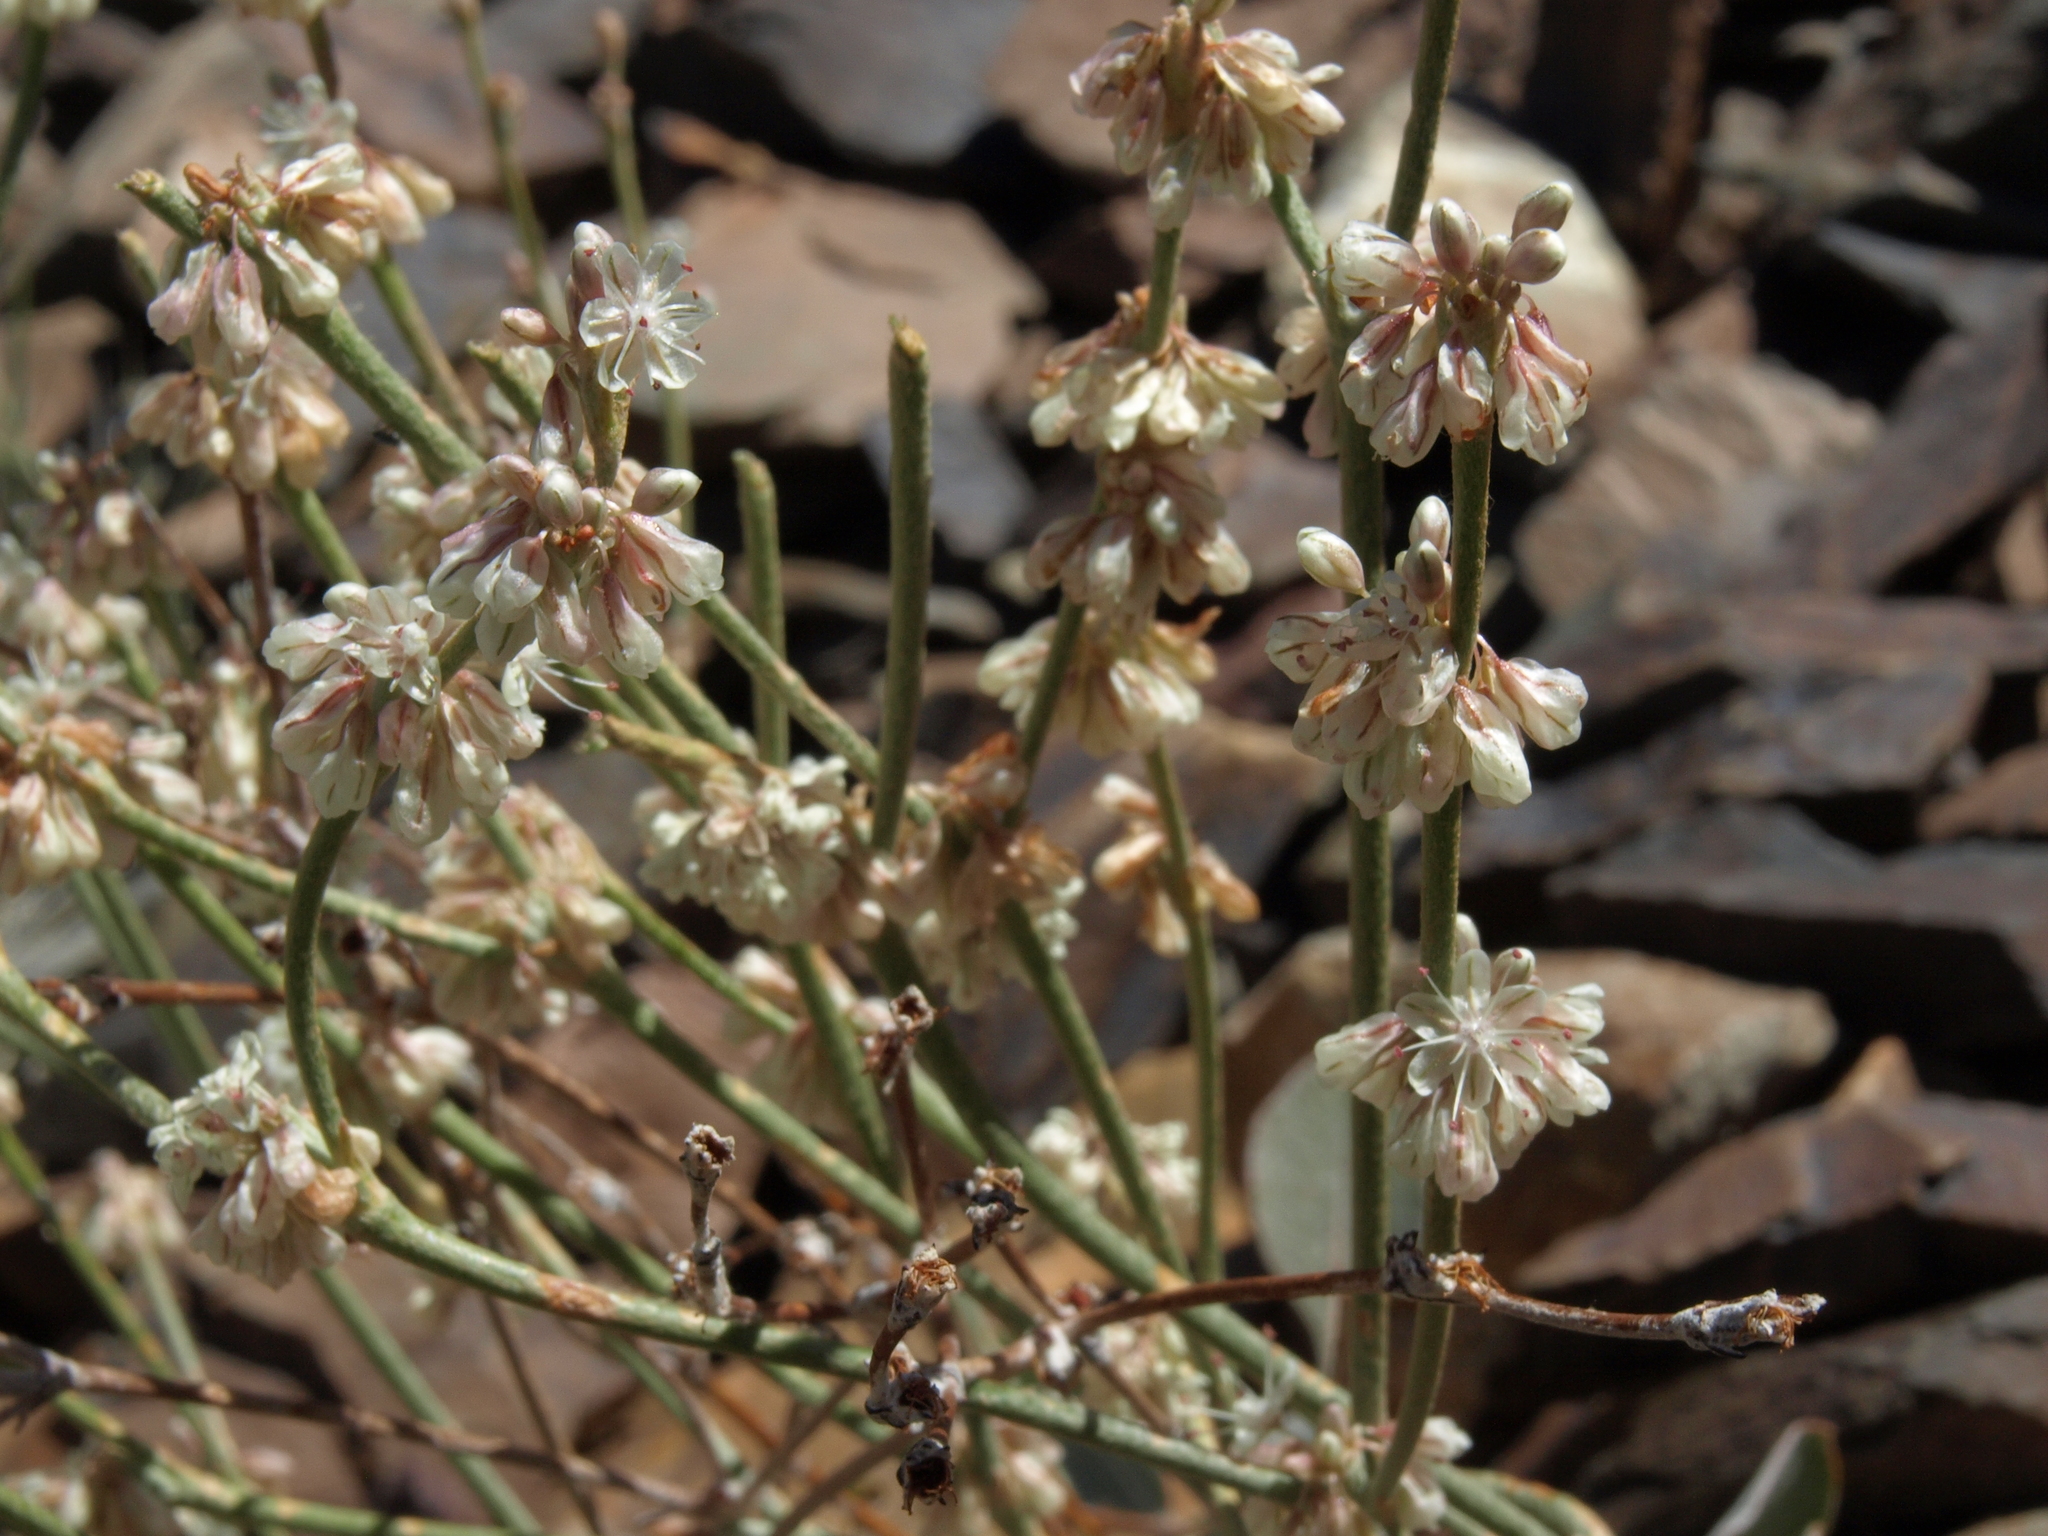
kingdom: Plantae
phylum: Tracheophyta
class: Magnoliopsida
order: Caryophyllales
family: Polygonaceae
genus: Eriogonum
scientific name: Eriogonum rupinum
